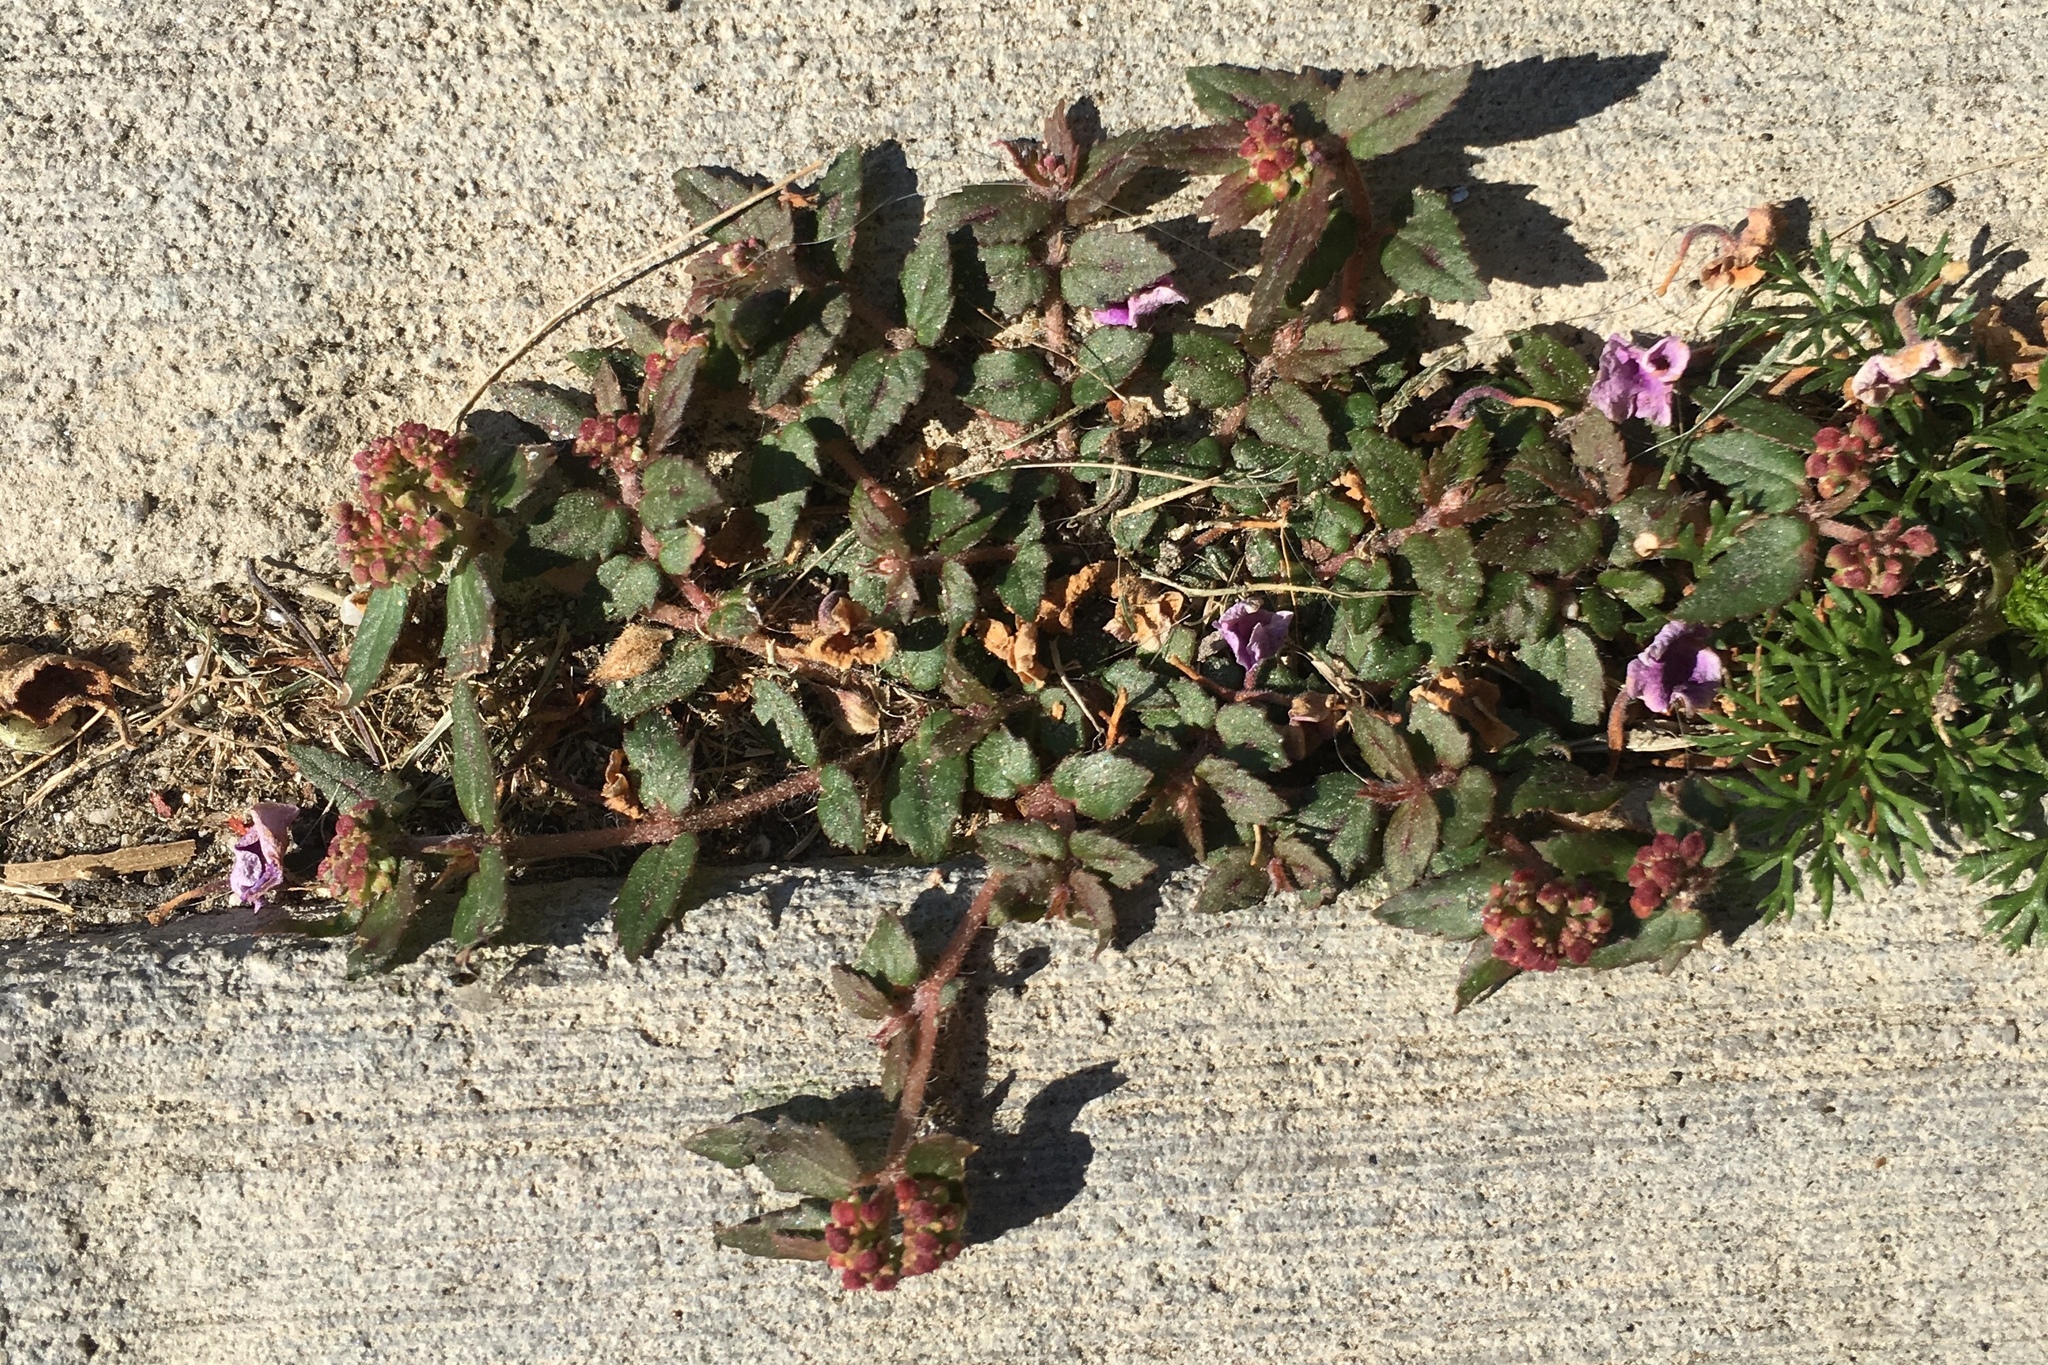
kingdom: Plantae
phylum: Tracheophyta
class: Magnoliopsida
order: Malpighiales
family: Euphorbiaceae
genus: Euphorbia
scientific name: Euphorbia ophthalmica
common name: Florida hammock sandmat
